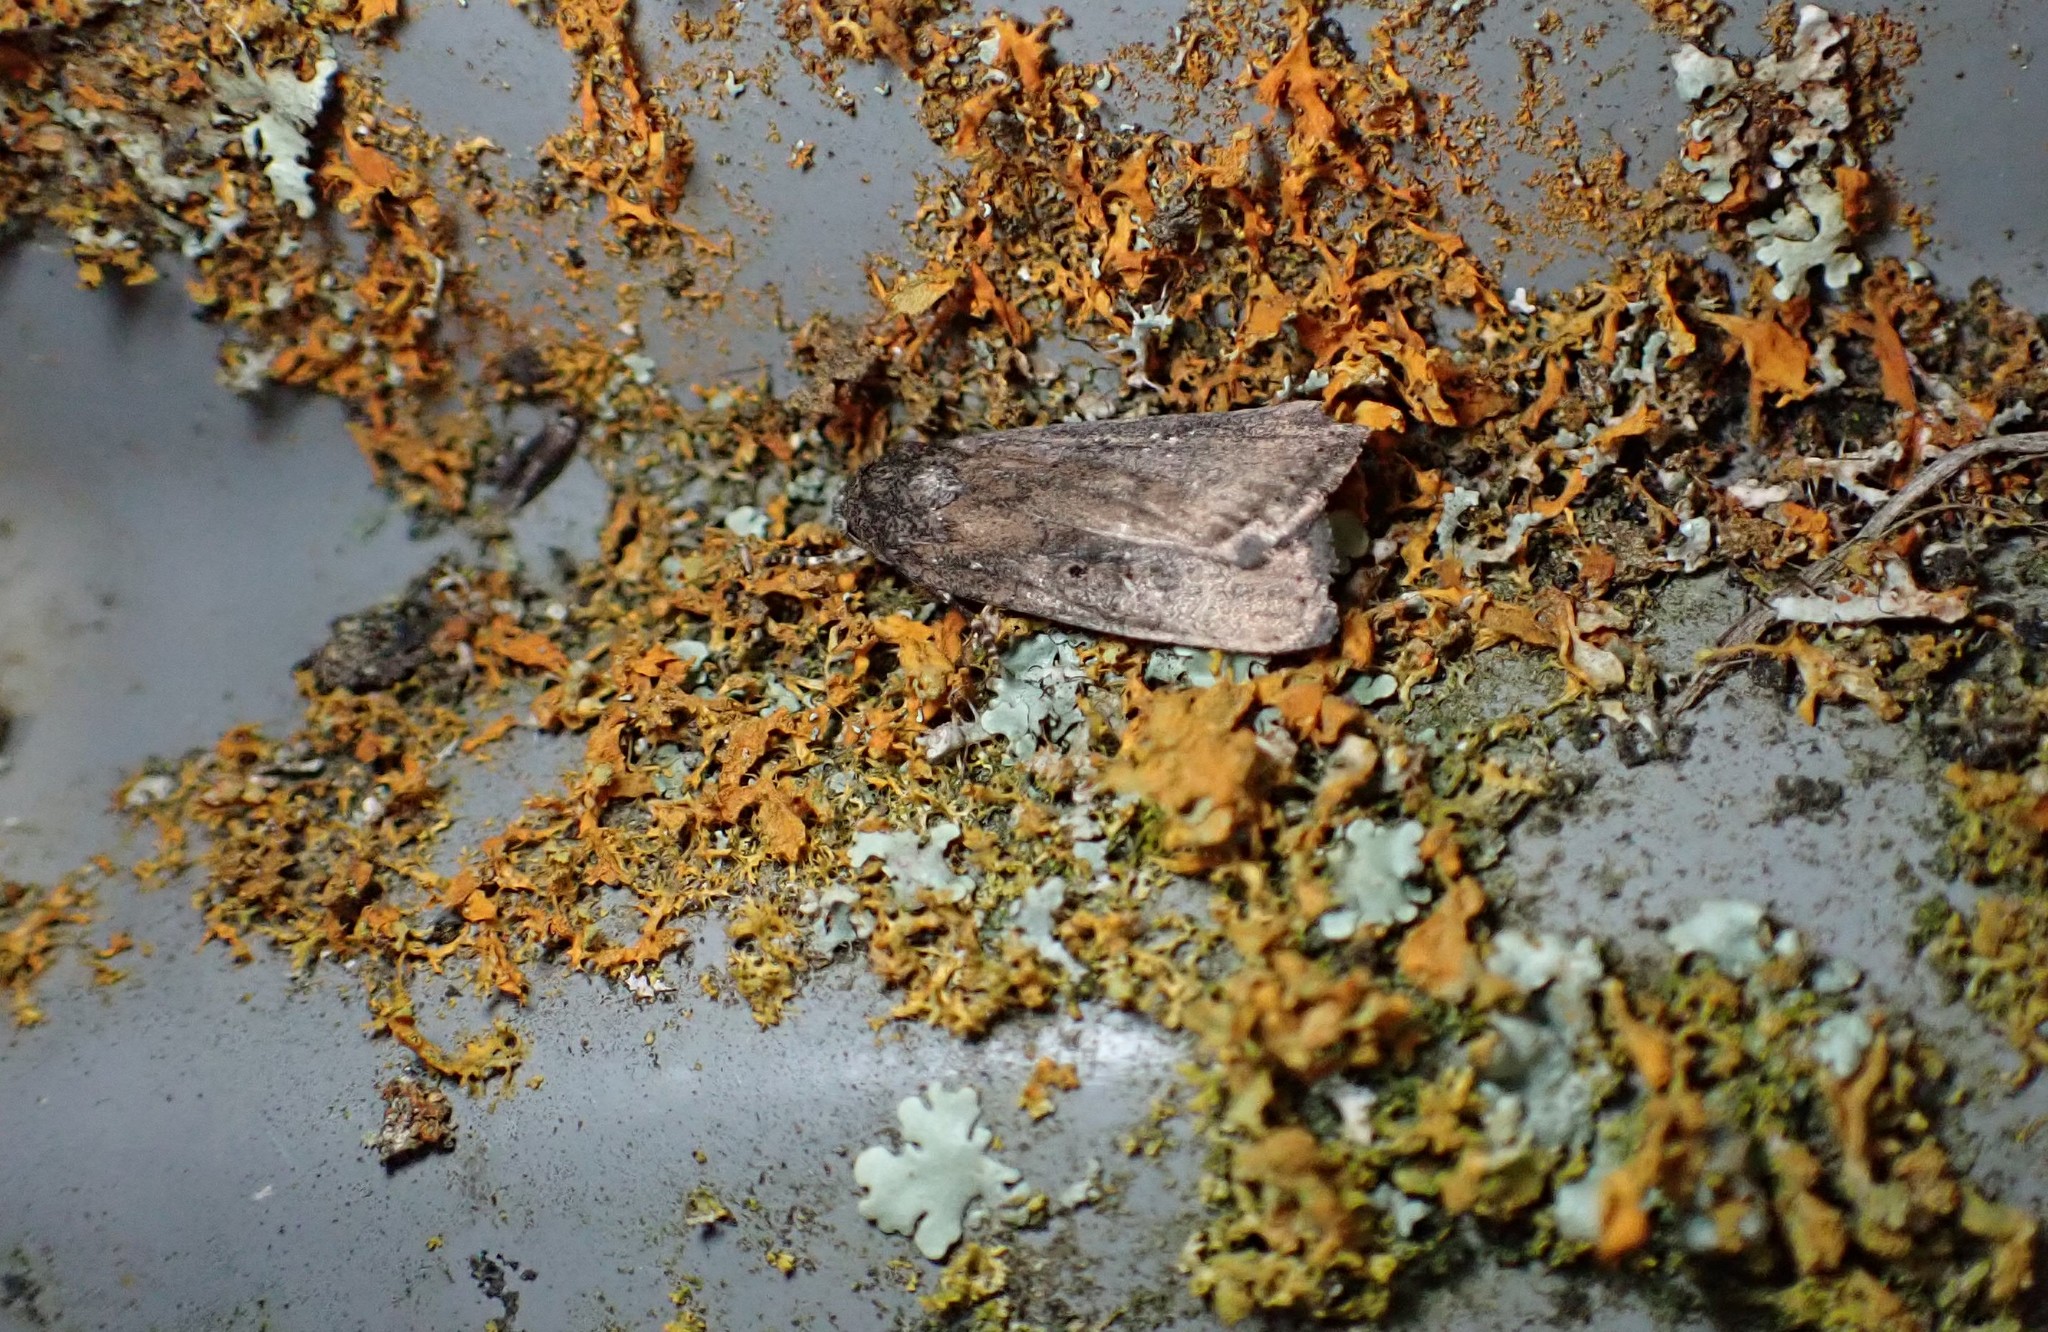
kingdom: Animalia
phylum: Arthropoda
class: Insecta
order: Lepidoptera
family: Noctuidae
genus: Athetis
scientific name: Athetis tenuis
